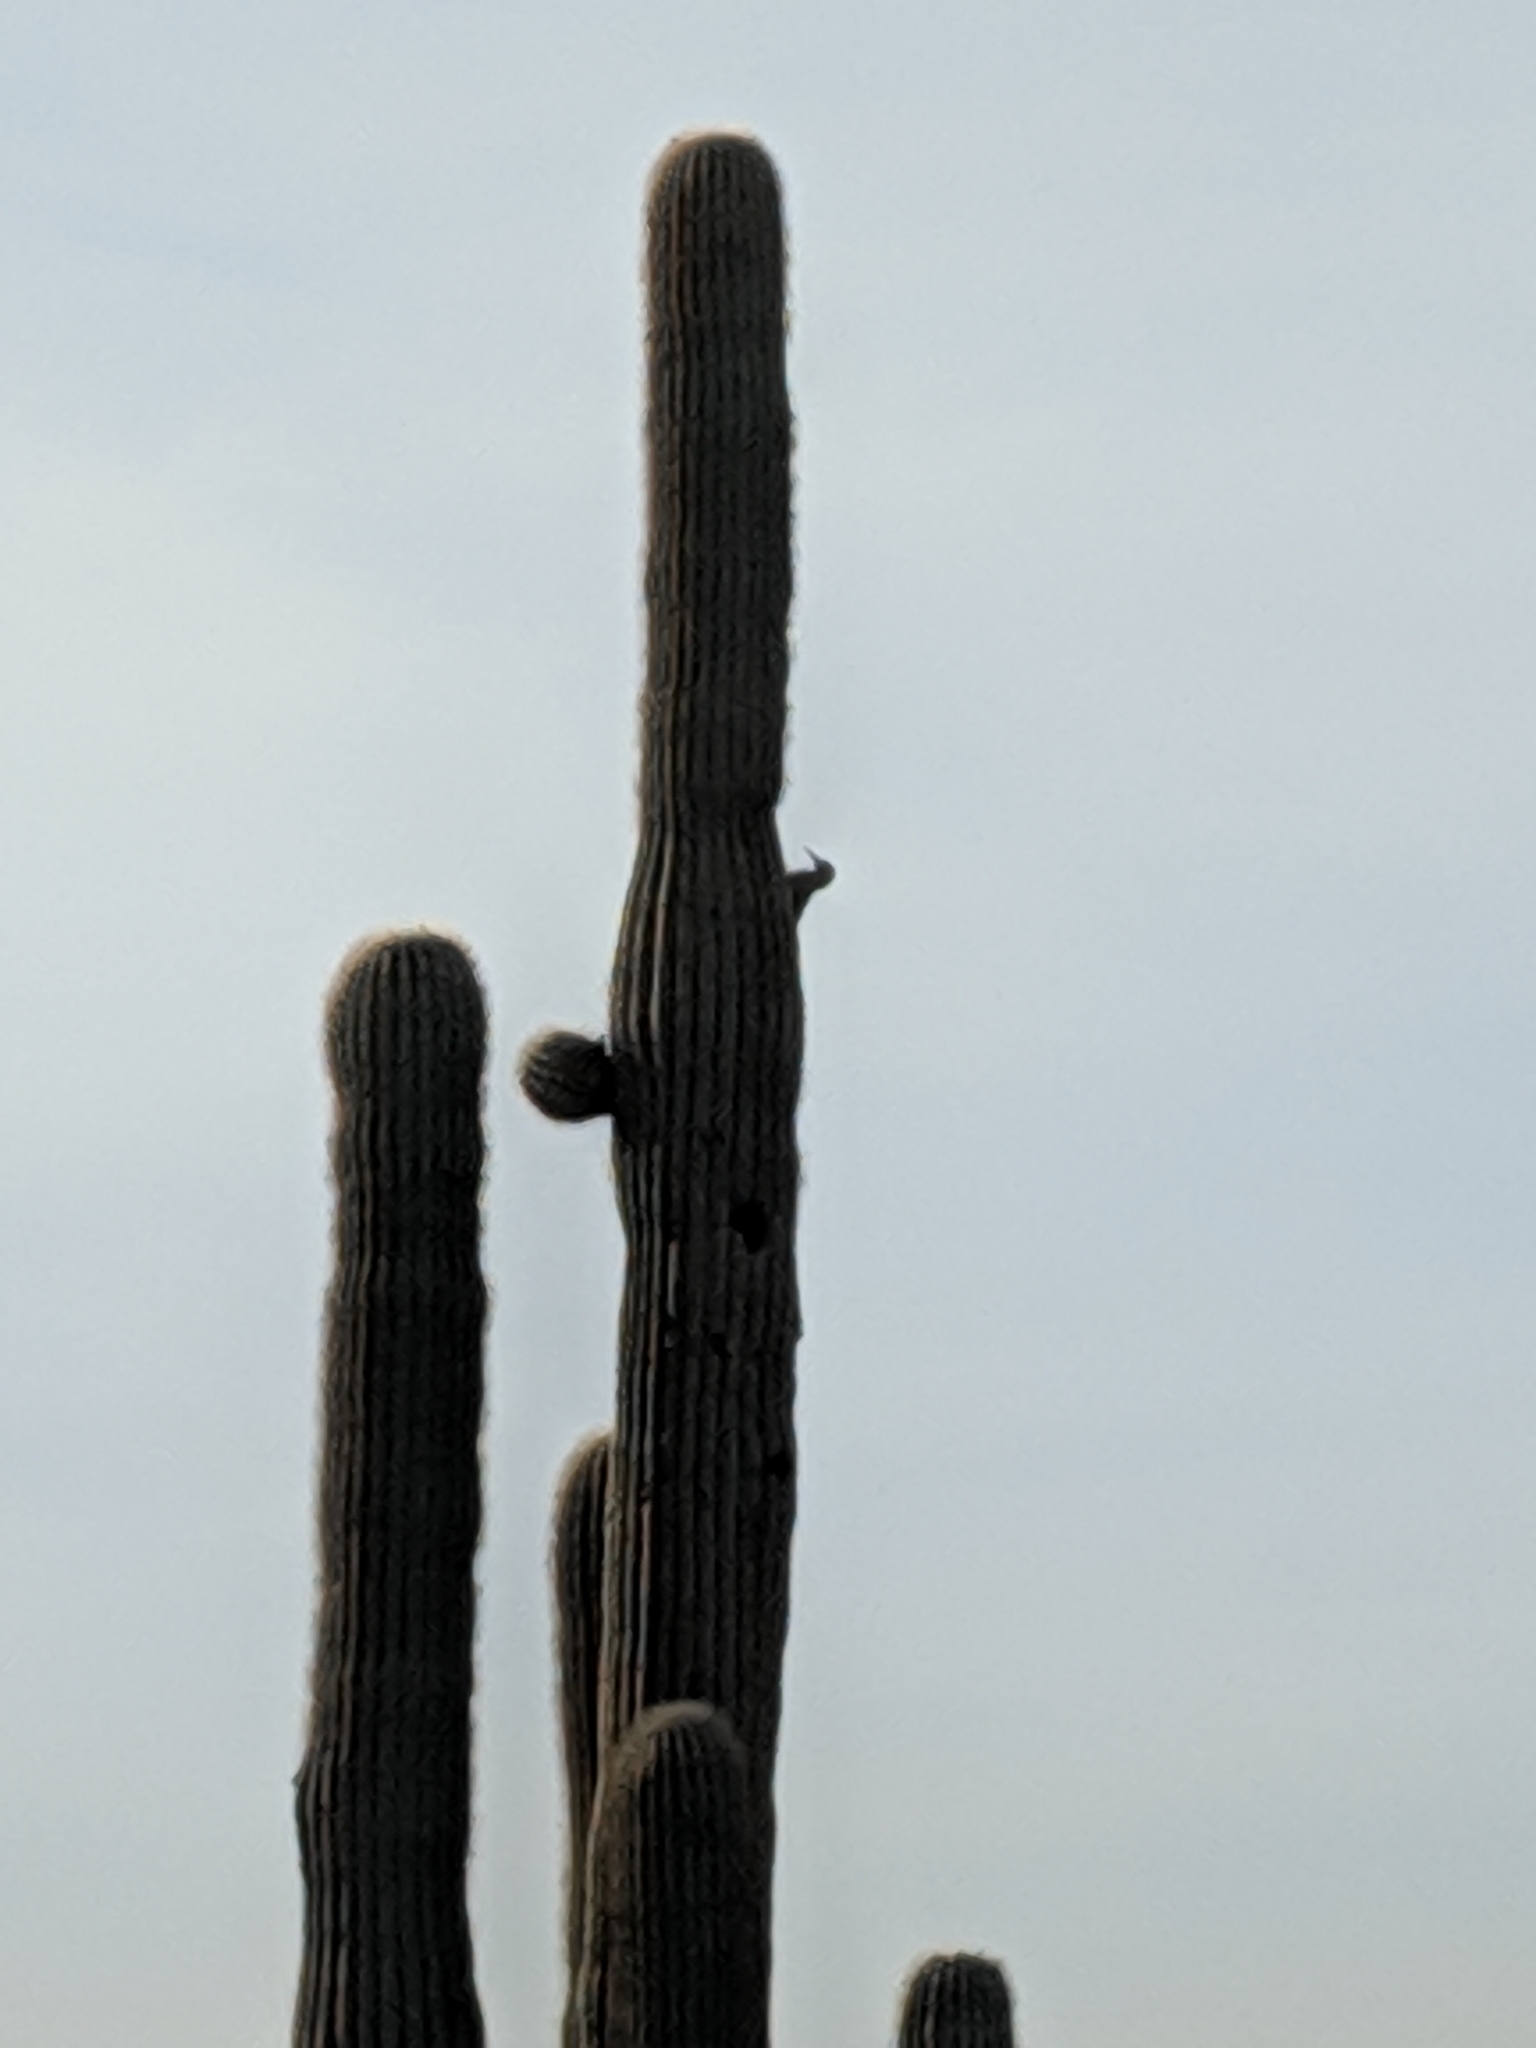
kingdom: Animalia
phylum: Chordata
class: Aves
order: Piciformes
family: Picidae
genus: Colaptes
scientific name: Colaptes chrysoides
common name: Gilded flicker
